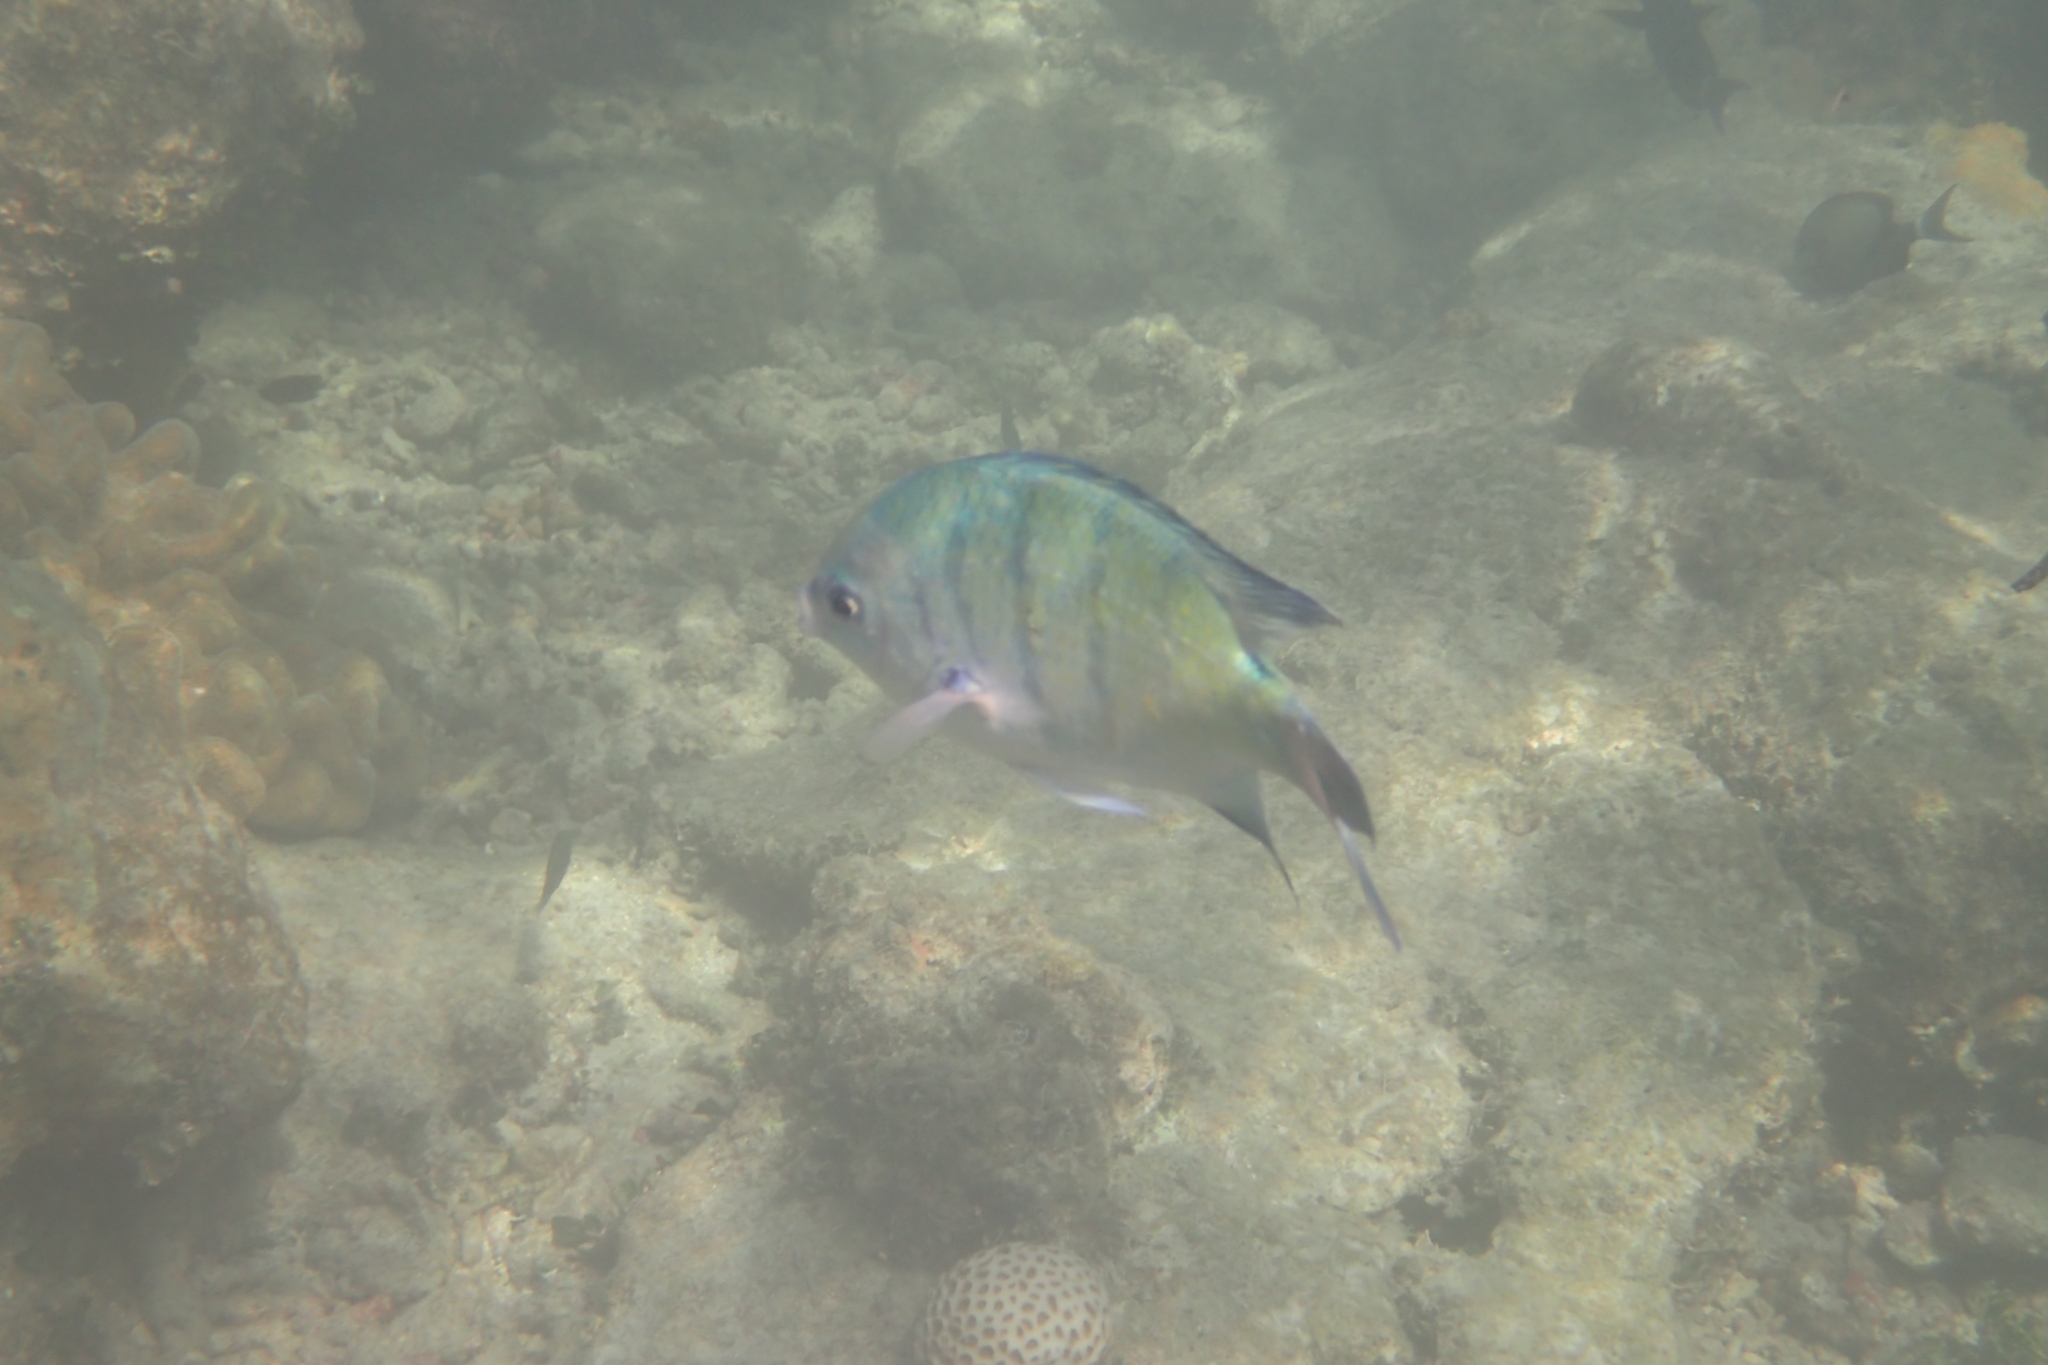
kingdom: Animalia
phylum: Chordata
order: Perciformes
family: Pomacentridae
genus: Abudefduf
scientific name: Abudefduf whitleyi
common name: Whitley's seargent
